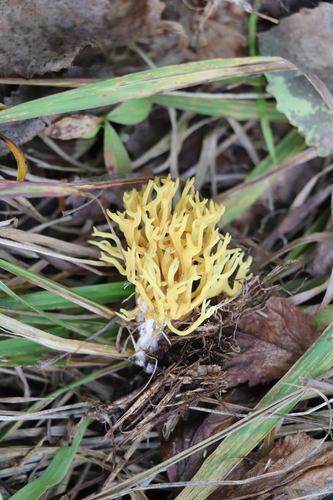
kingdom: Fungi
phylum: Basidiomycota
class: Agaricomycetes
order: Agaricales
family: Clavariaceae
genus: Ramariopsis
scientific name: Ramariopsis crocea
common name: Orange coral
